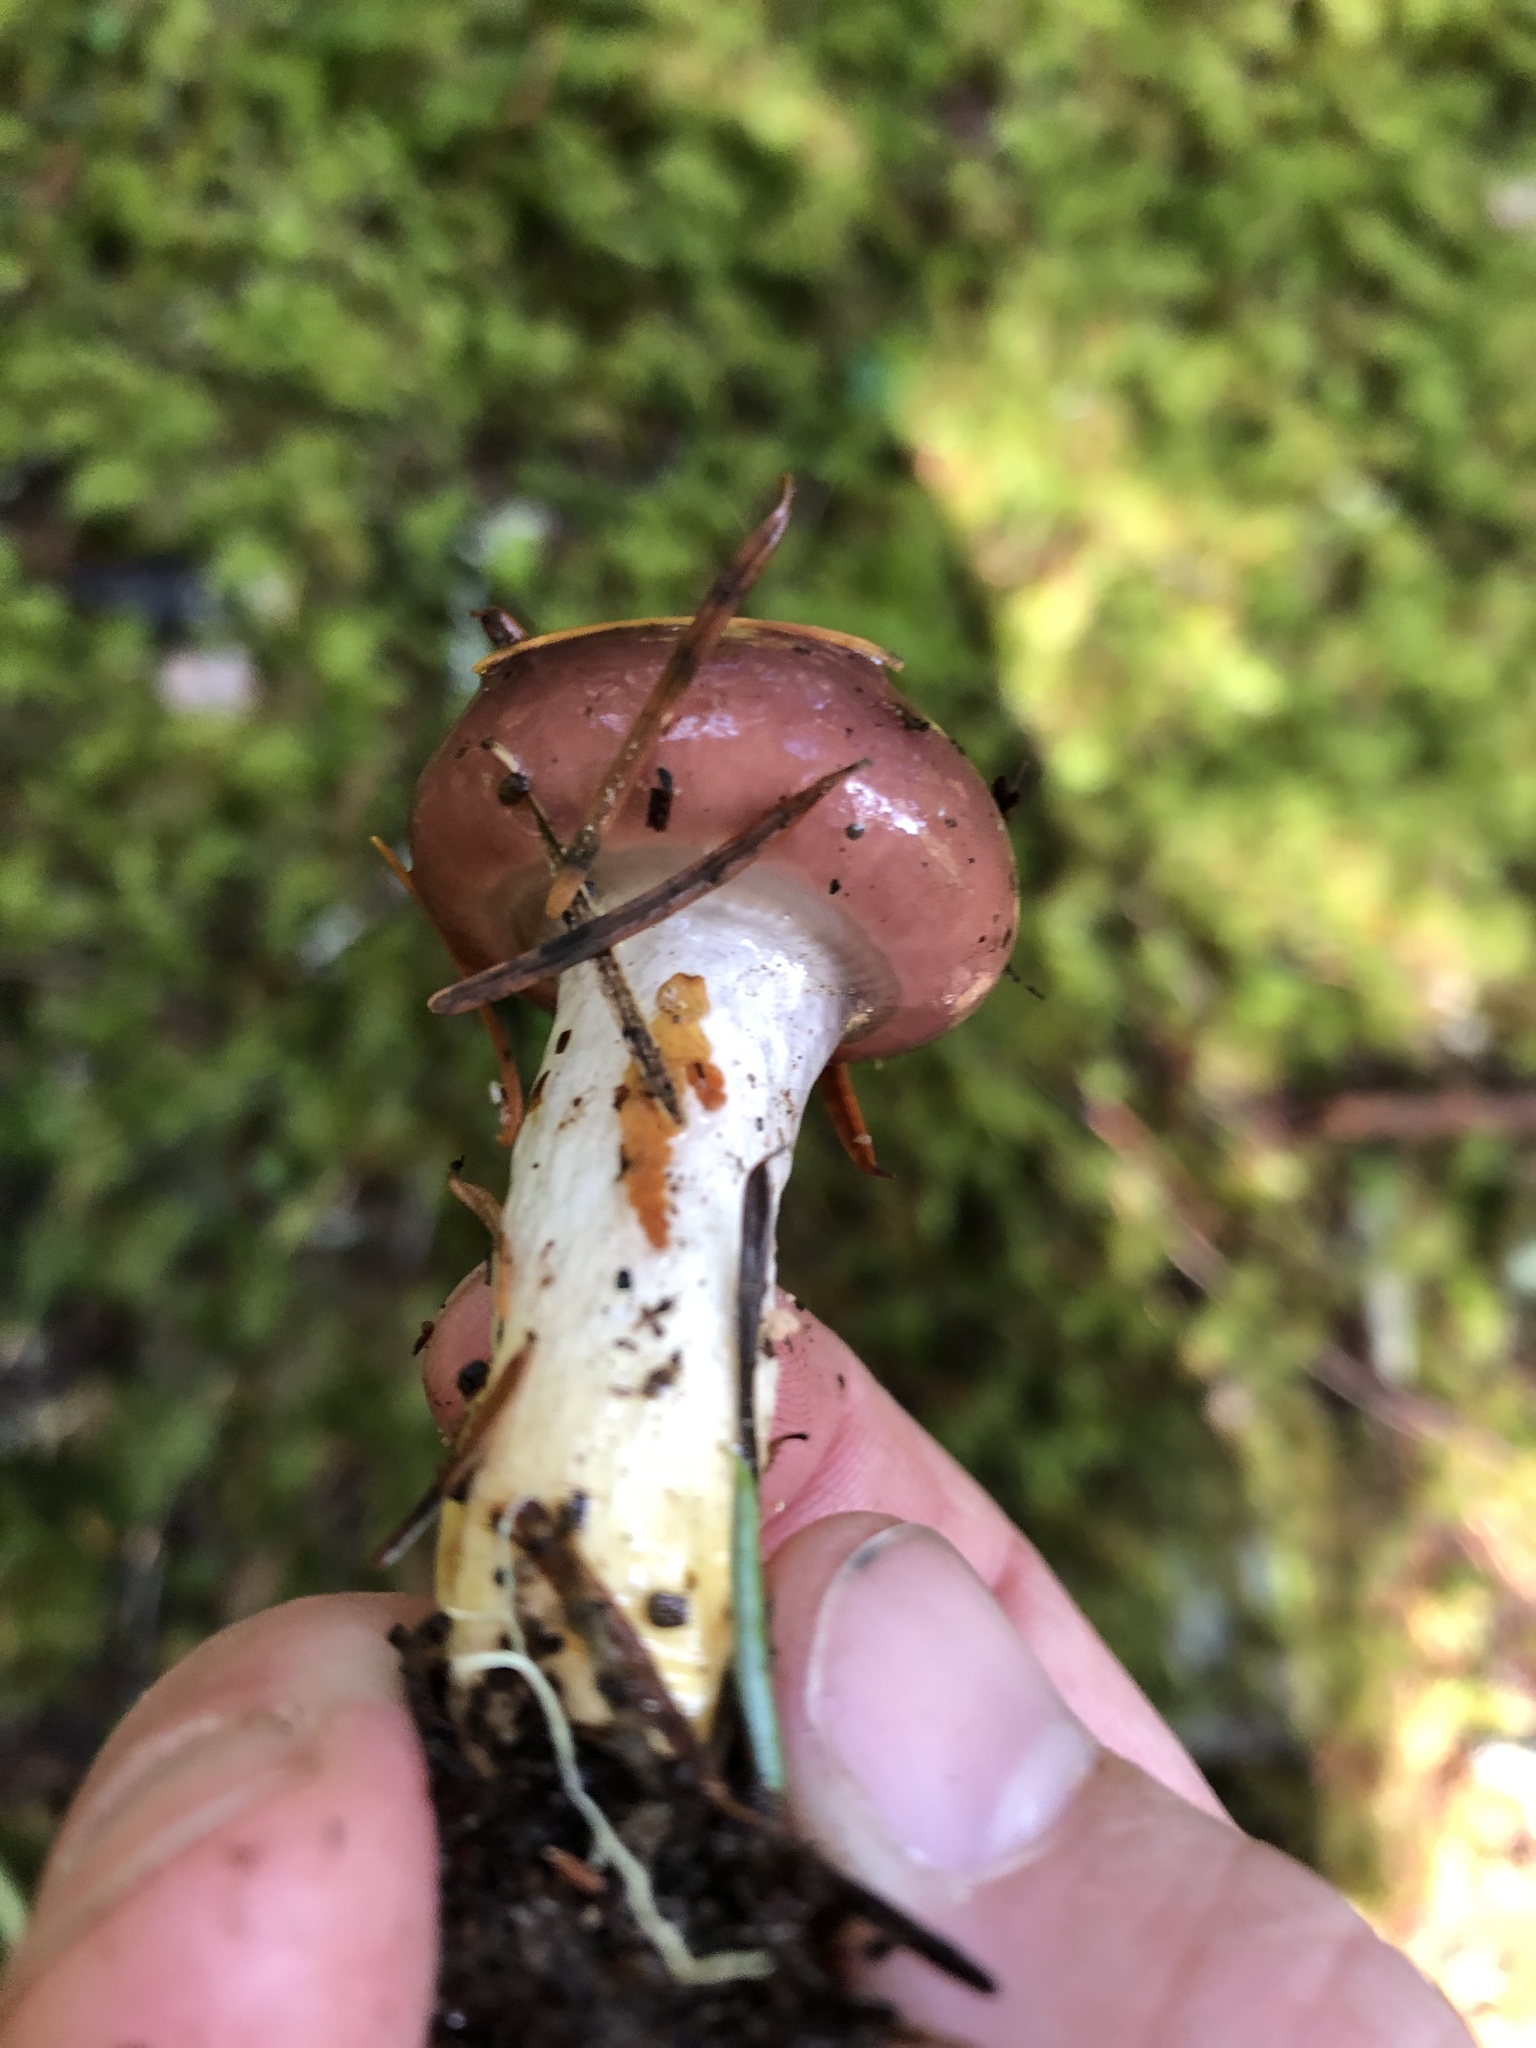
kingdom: Fungi
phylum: Basidiomycota
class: Agaricomycetes
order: Boletales
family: Gomphidiaceae
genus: Gomphidius
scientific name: Gomphidius subroseus
